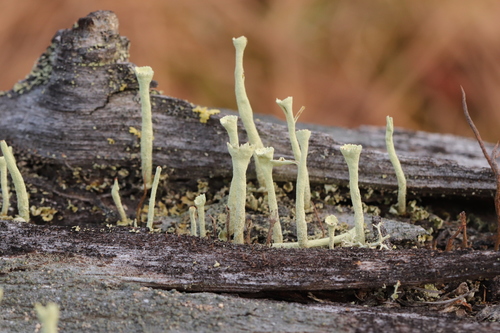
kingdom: Fungi
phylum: Ascomycota
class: Lecanoromycetes
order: Lecanorales
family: Cladoniaceae
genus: Cladonia
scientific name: Cladonia deformis
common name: Lesser sulphur-cup lichen
